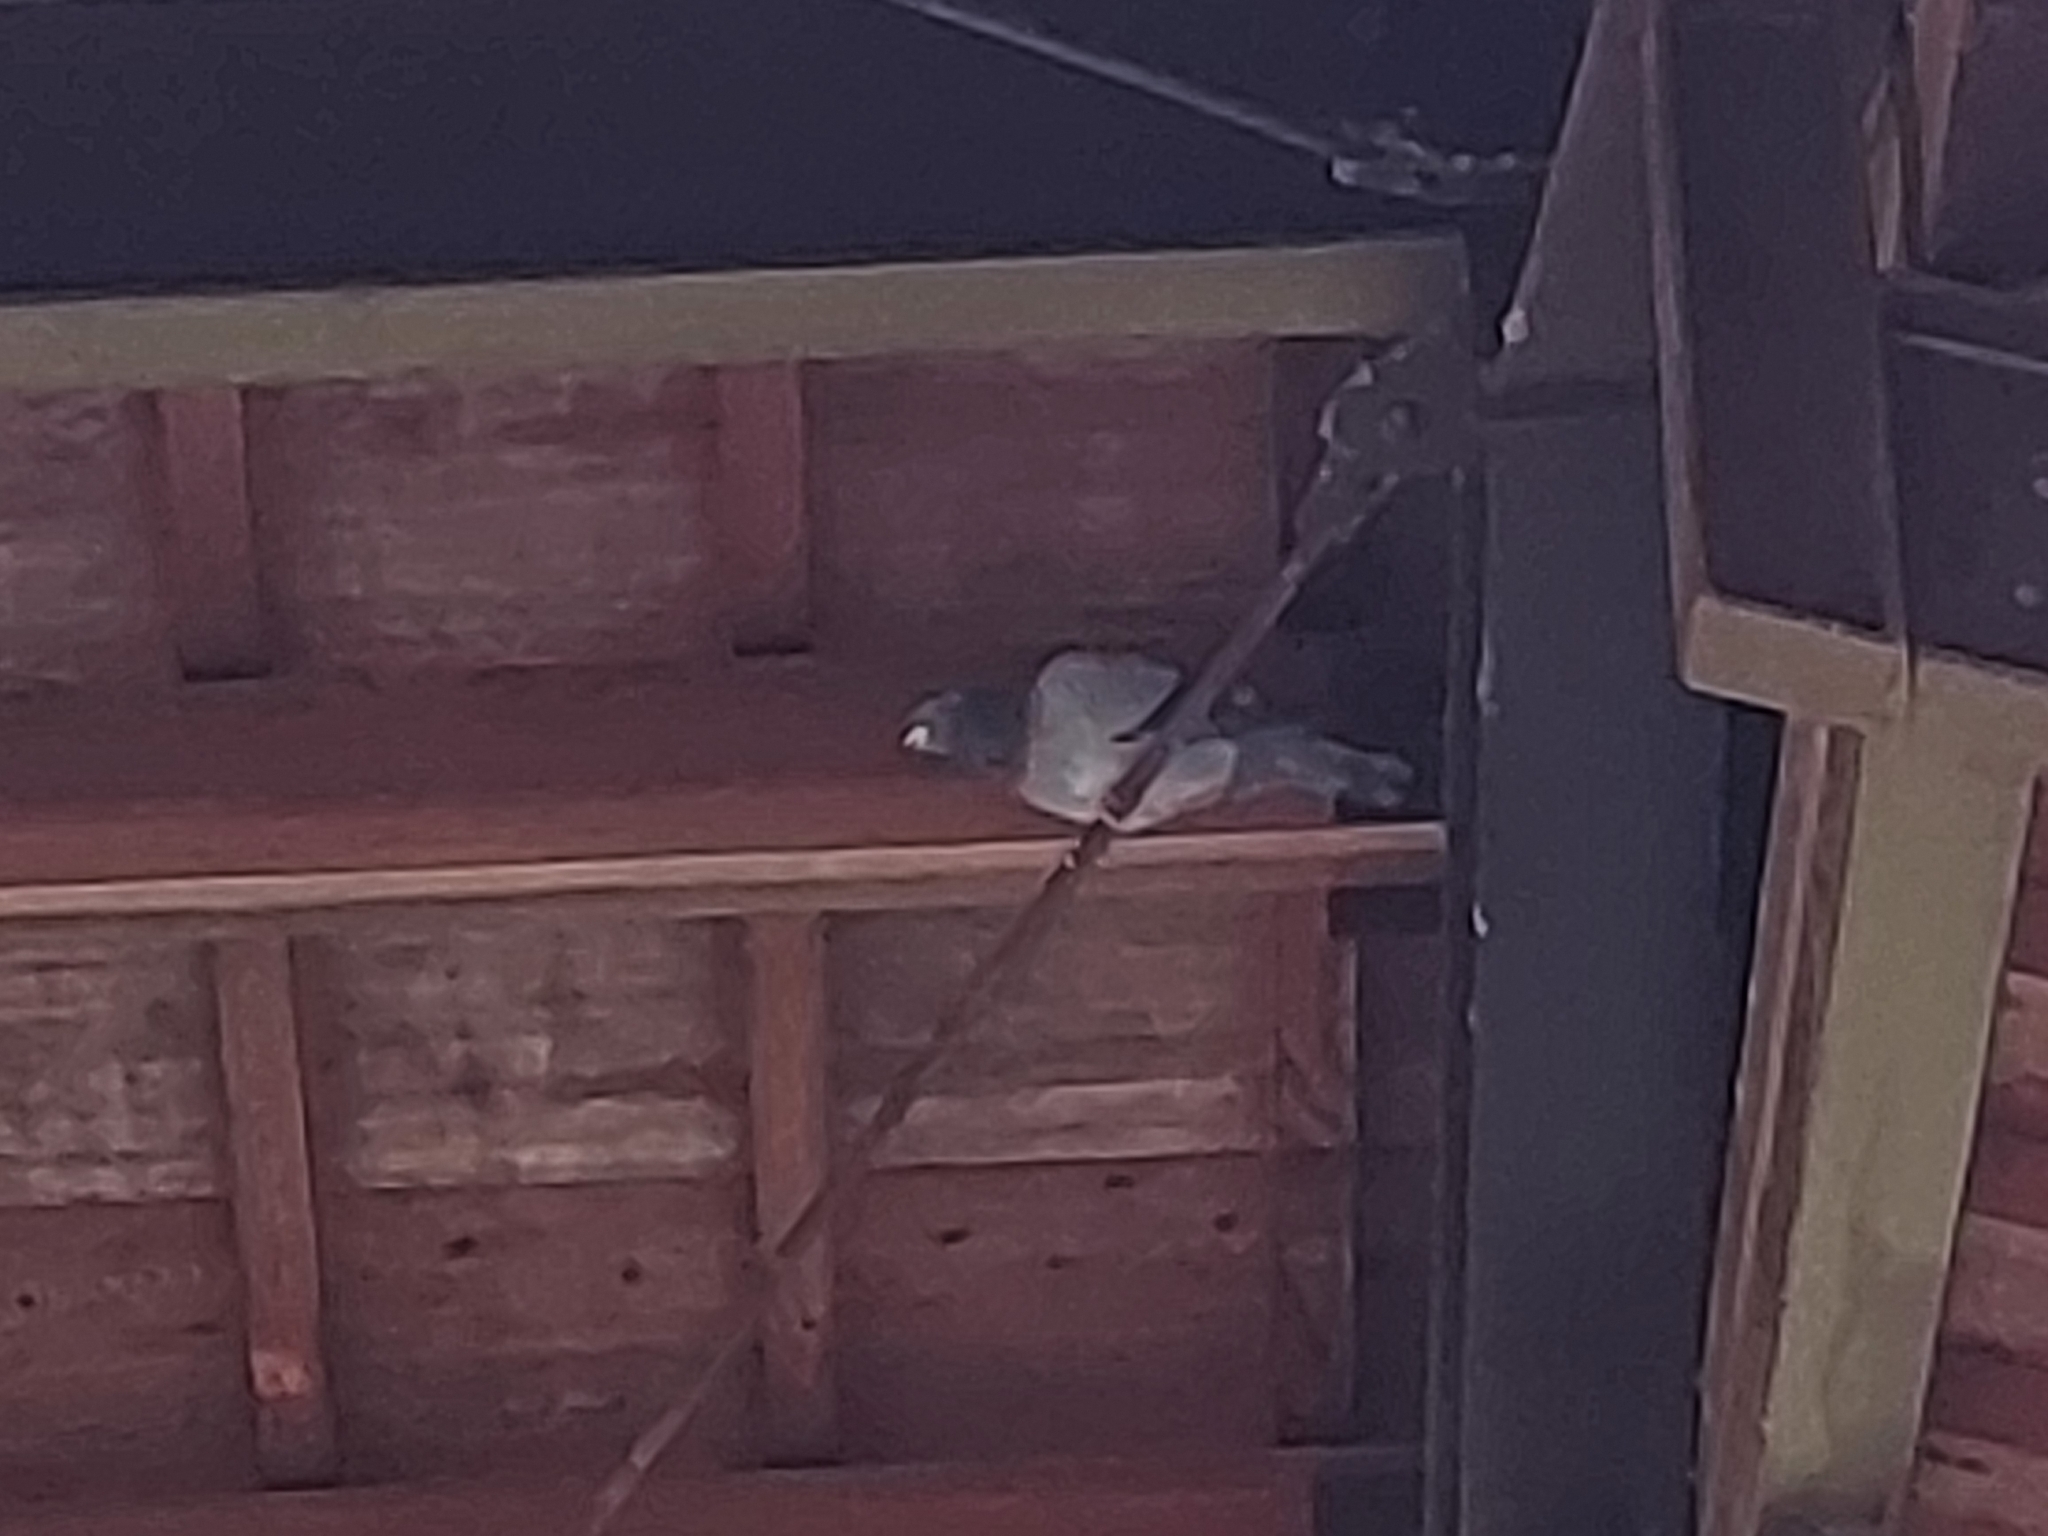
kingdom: Animalia
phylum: Chordata
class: Aves
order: Columbiformes
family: Columbidae
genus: Columba
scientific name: Columba livia
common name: Rock pigeon
